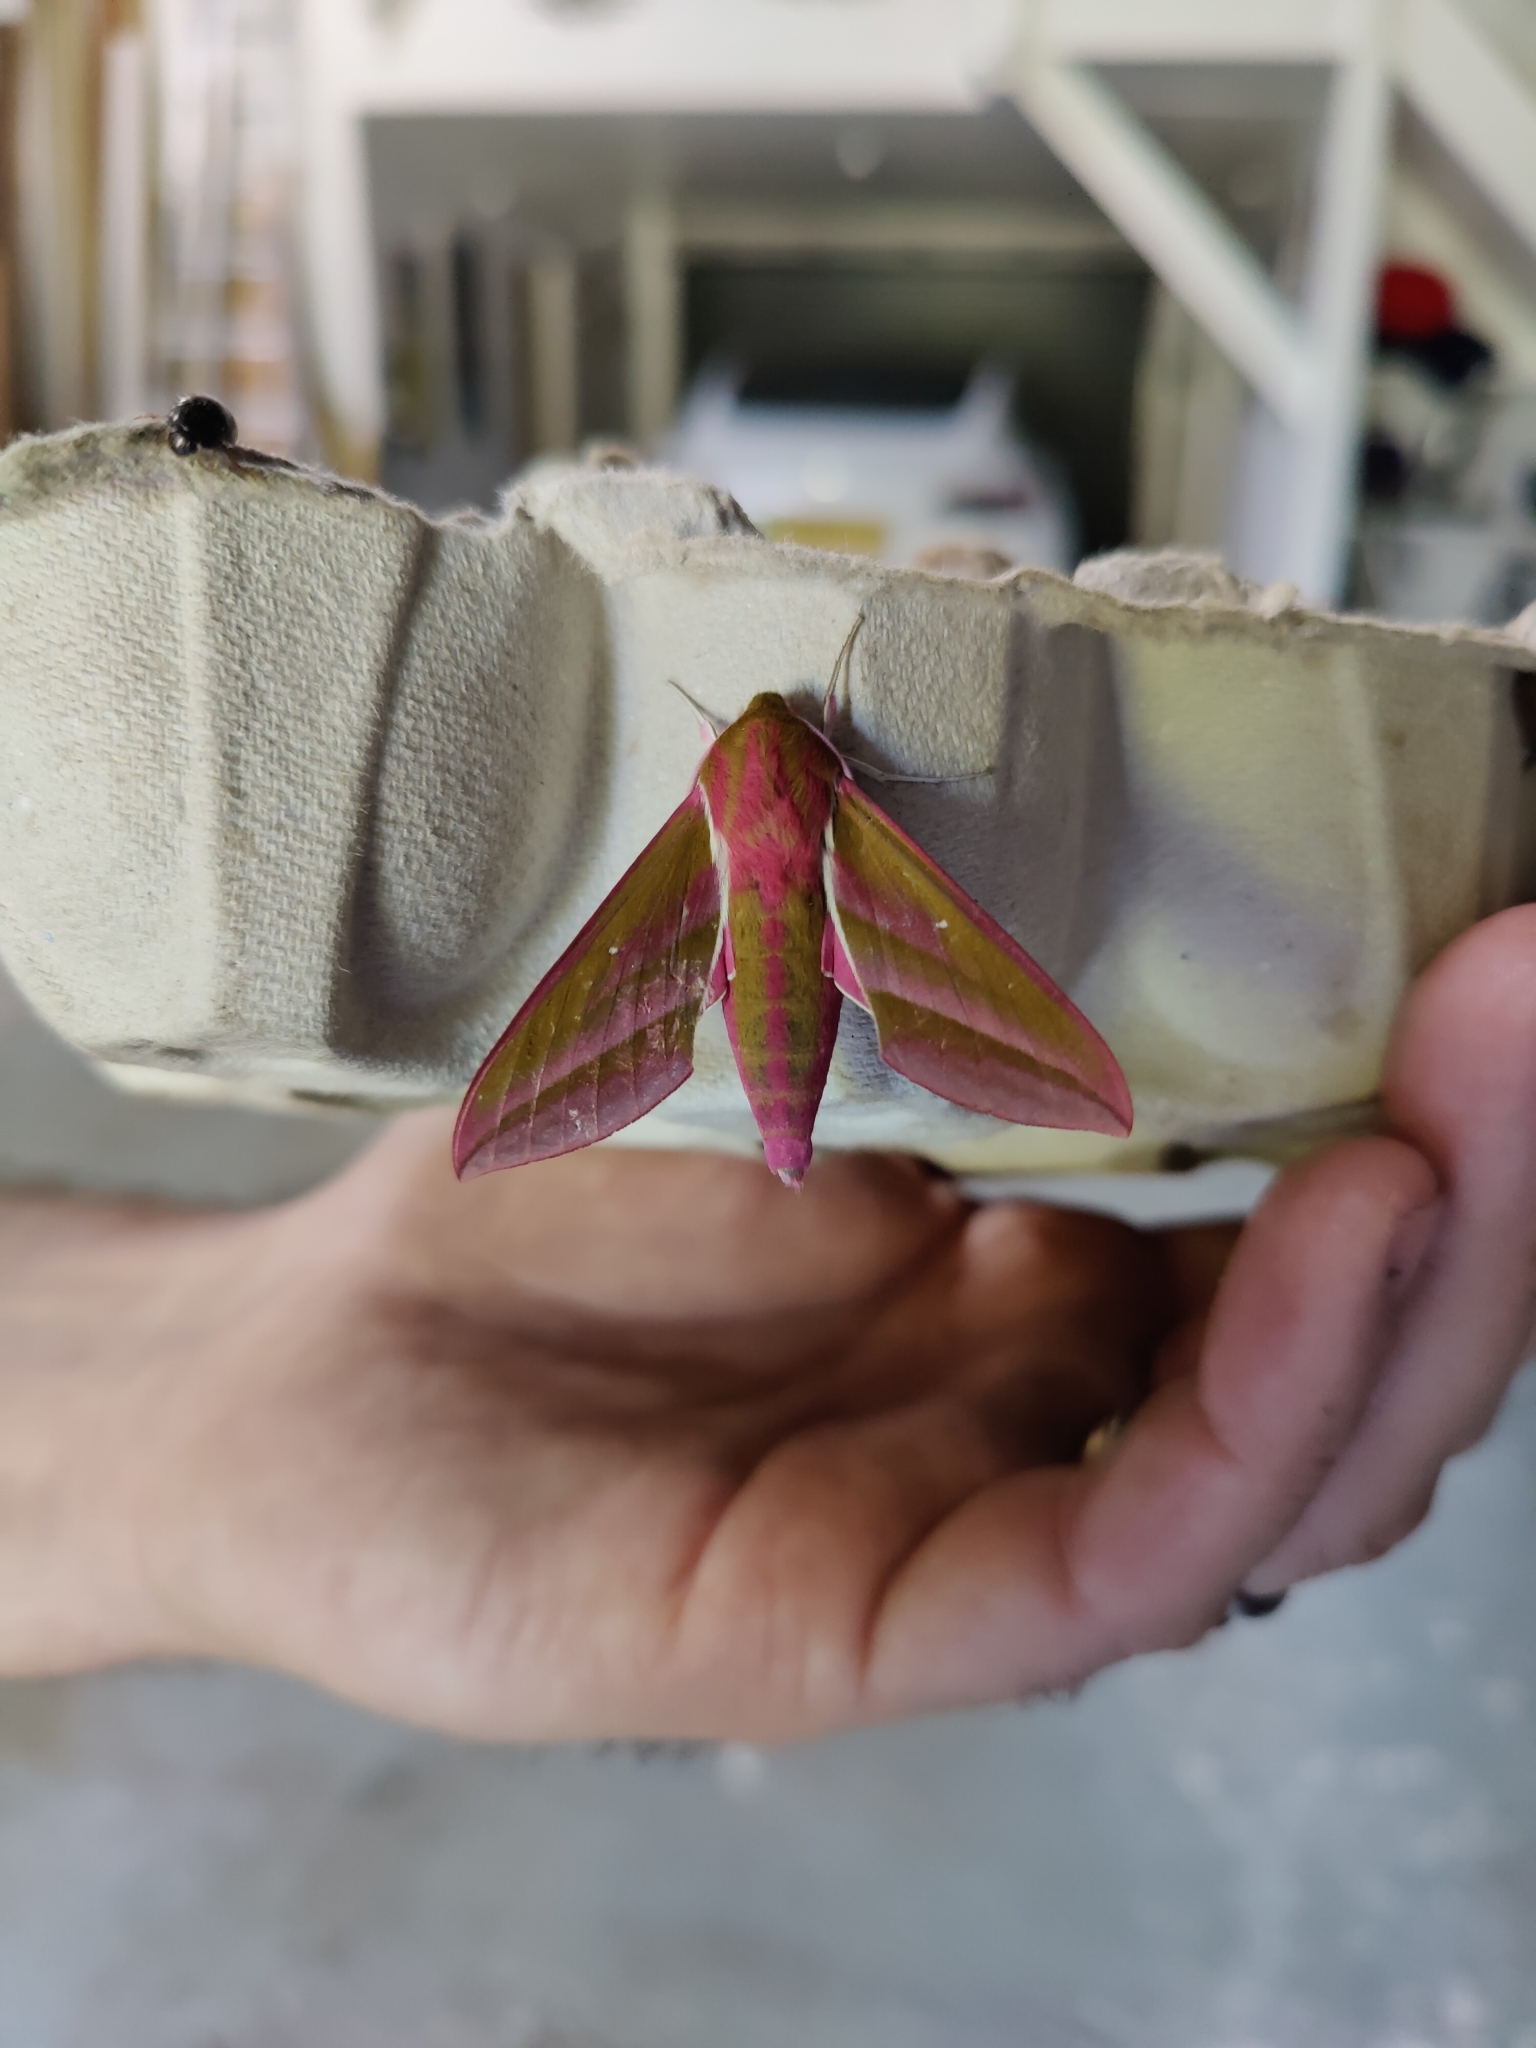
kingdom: Animalia
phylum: Arthropoda
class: Insecta
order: Lepidoptera
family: Sphingidae
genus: Deilephila
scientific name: Deilephila elpenor
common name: Elephant hawk-moth
